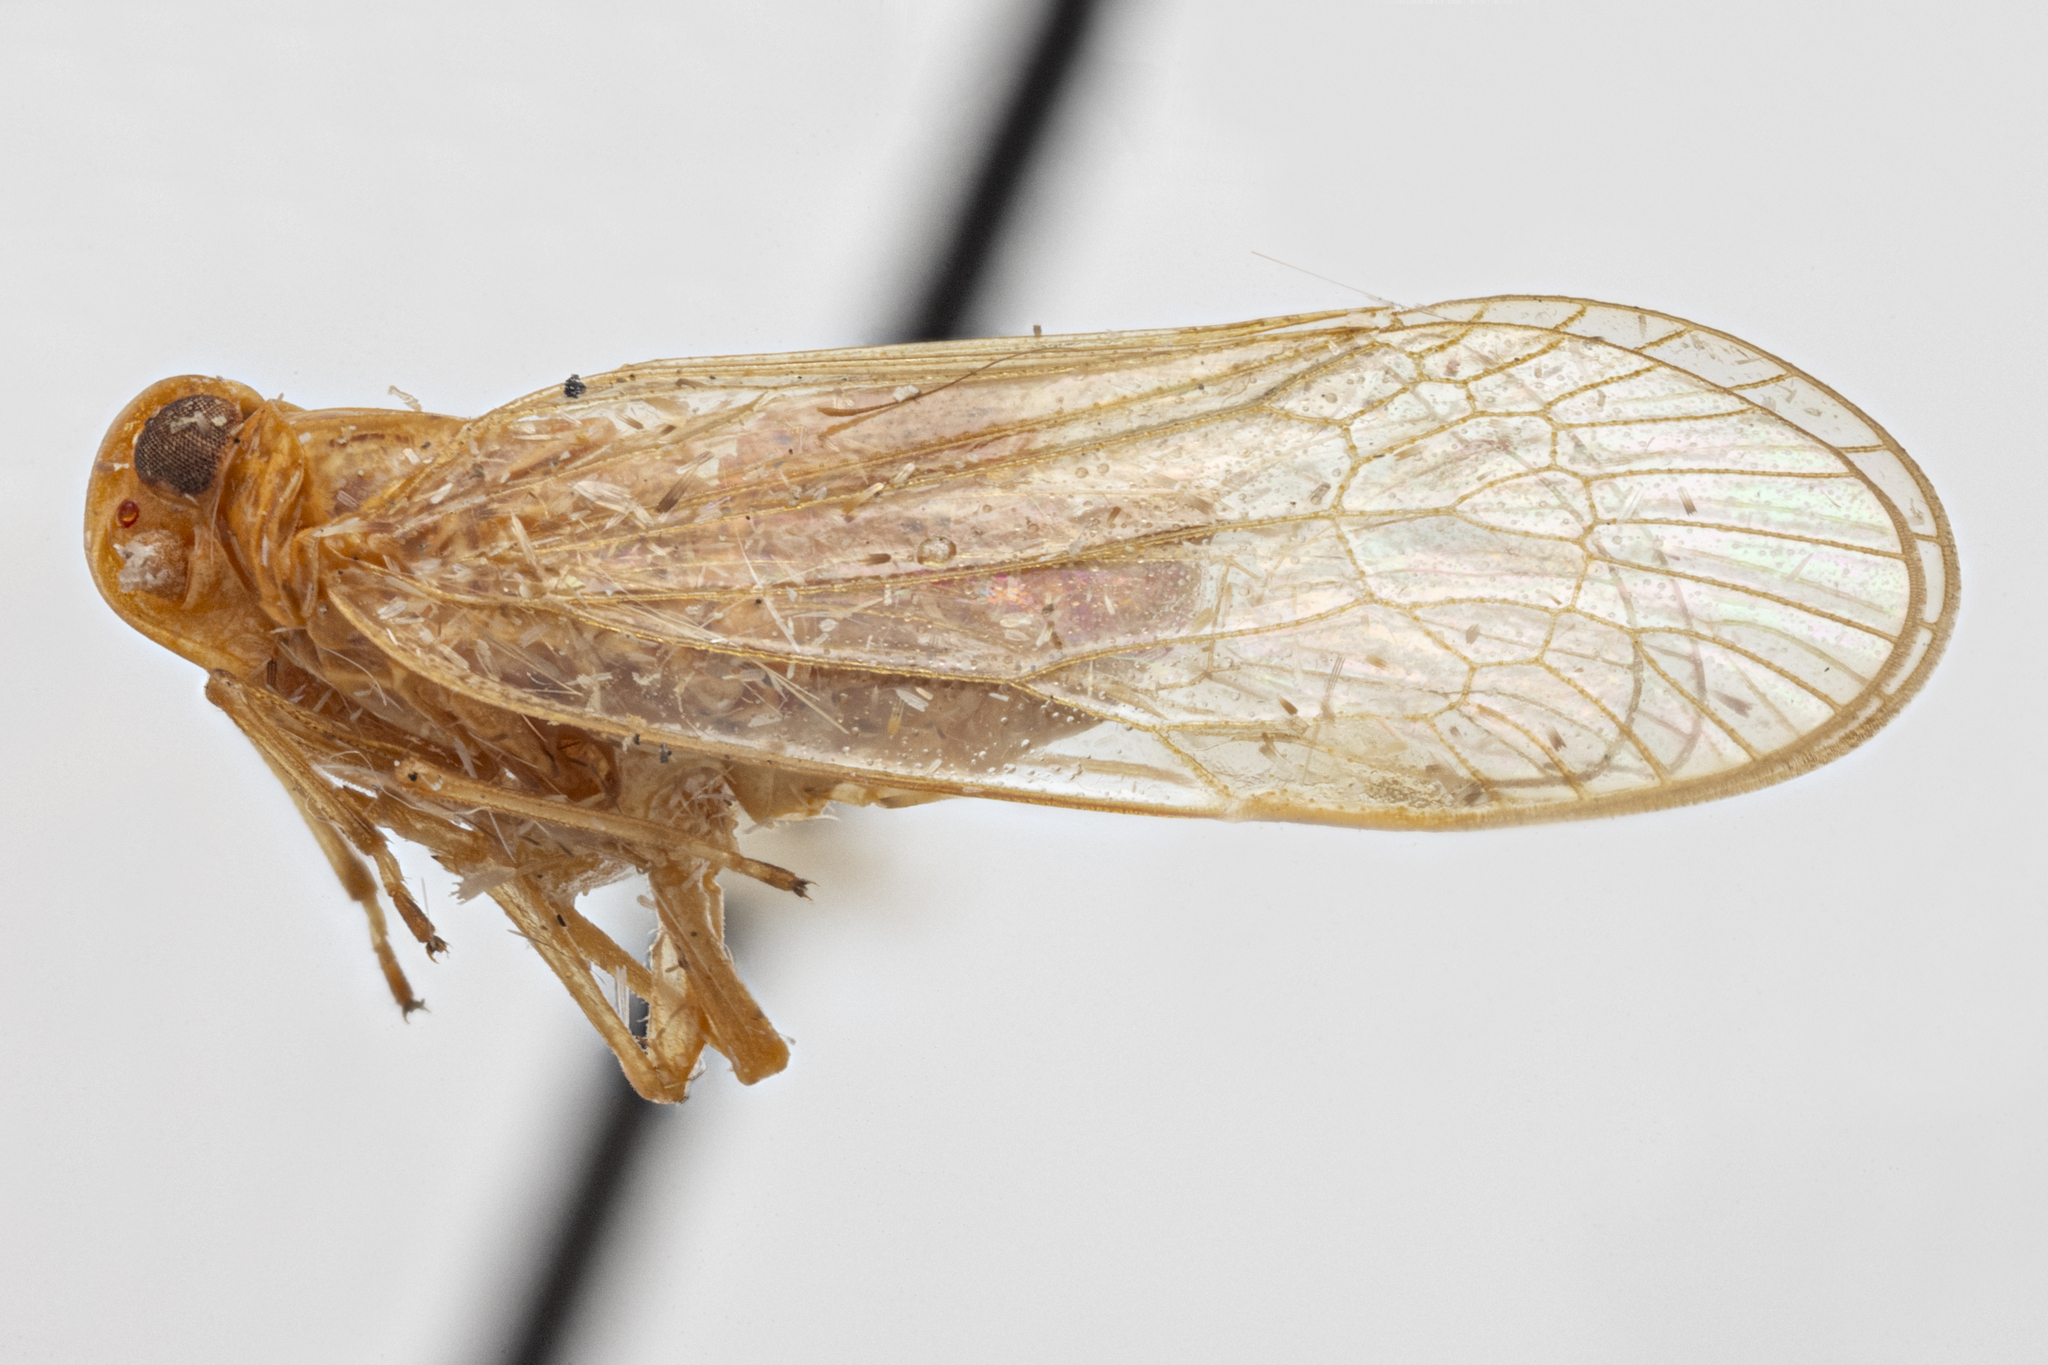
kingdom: Animalia
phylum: Arthropoda
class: Insecta
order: Hemiptera
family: Cixiidae
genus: Diastrocixius
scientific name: Diastrocixius thelyus
